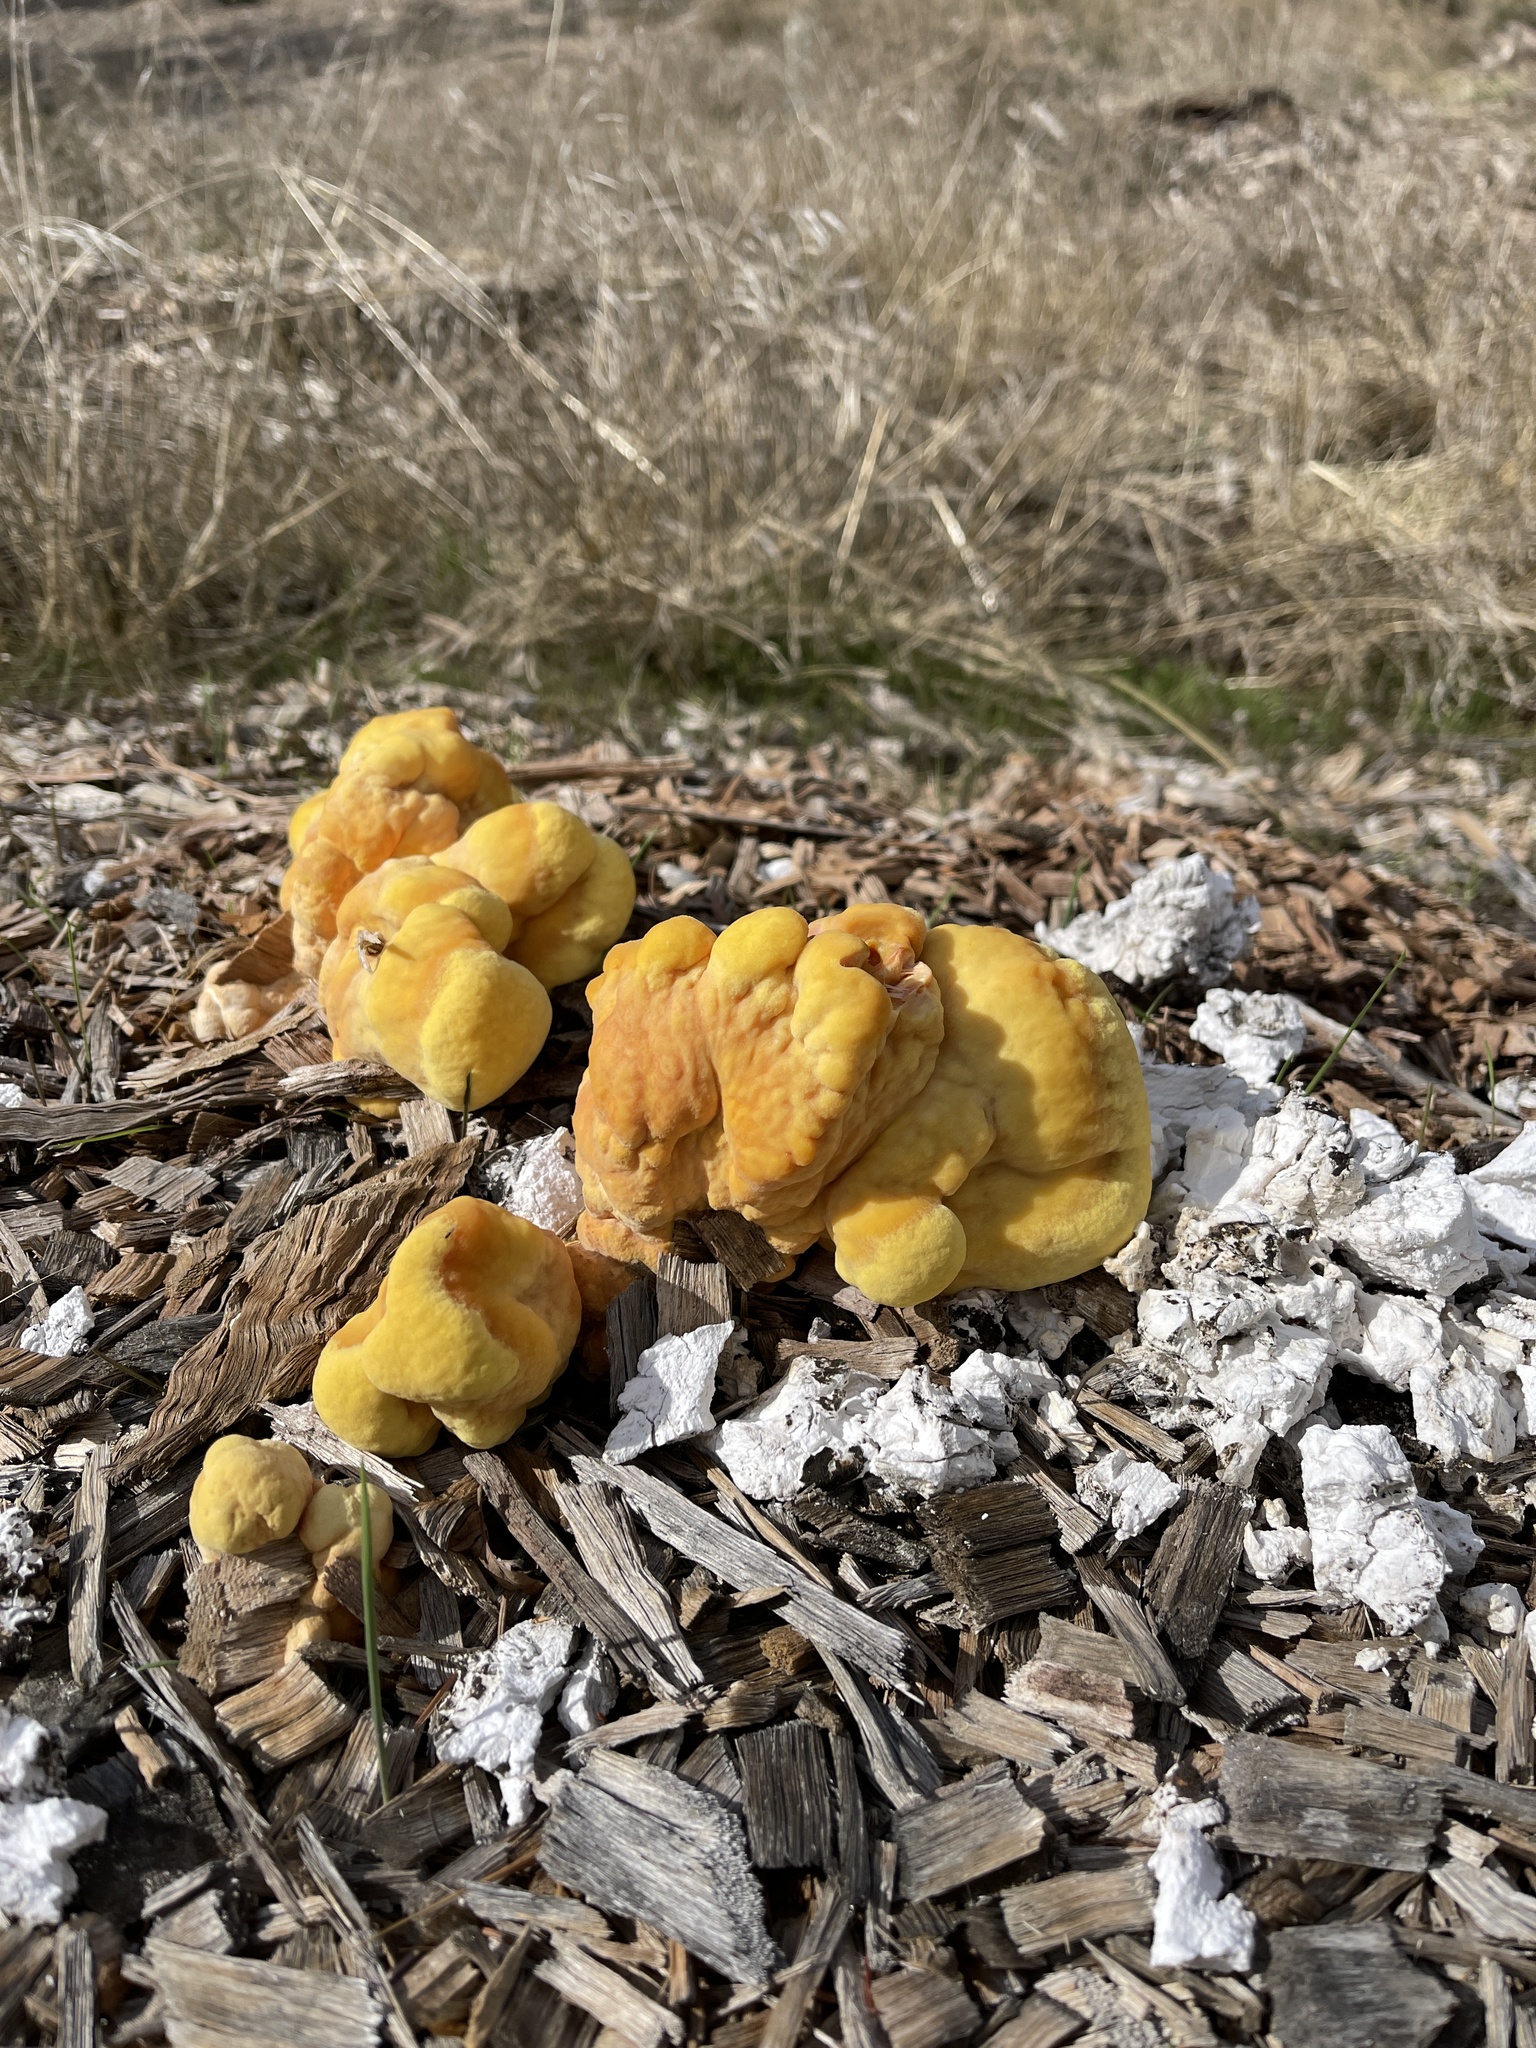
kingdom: Fungi
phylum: Basidiomycota
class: Agaricomycetes
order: Polyporales
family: Laetiporaceae
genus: Laetiporus
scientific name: Laetiporus gilbertsonii
